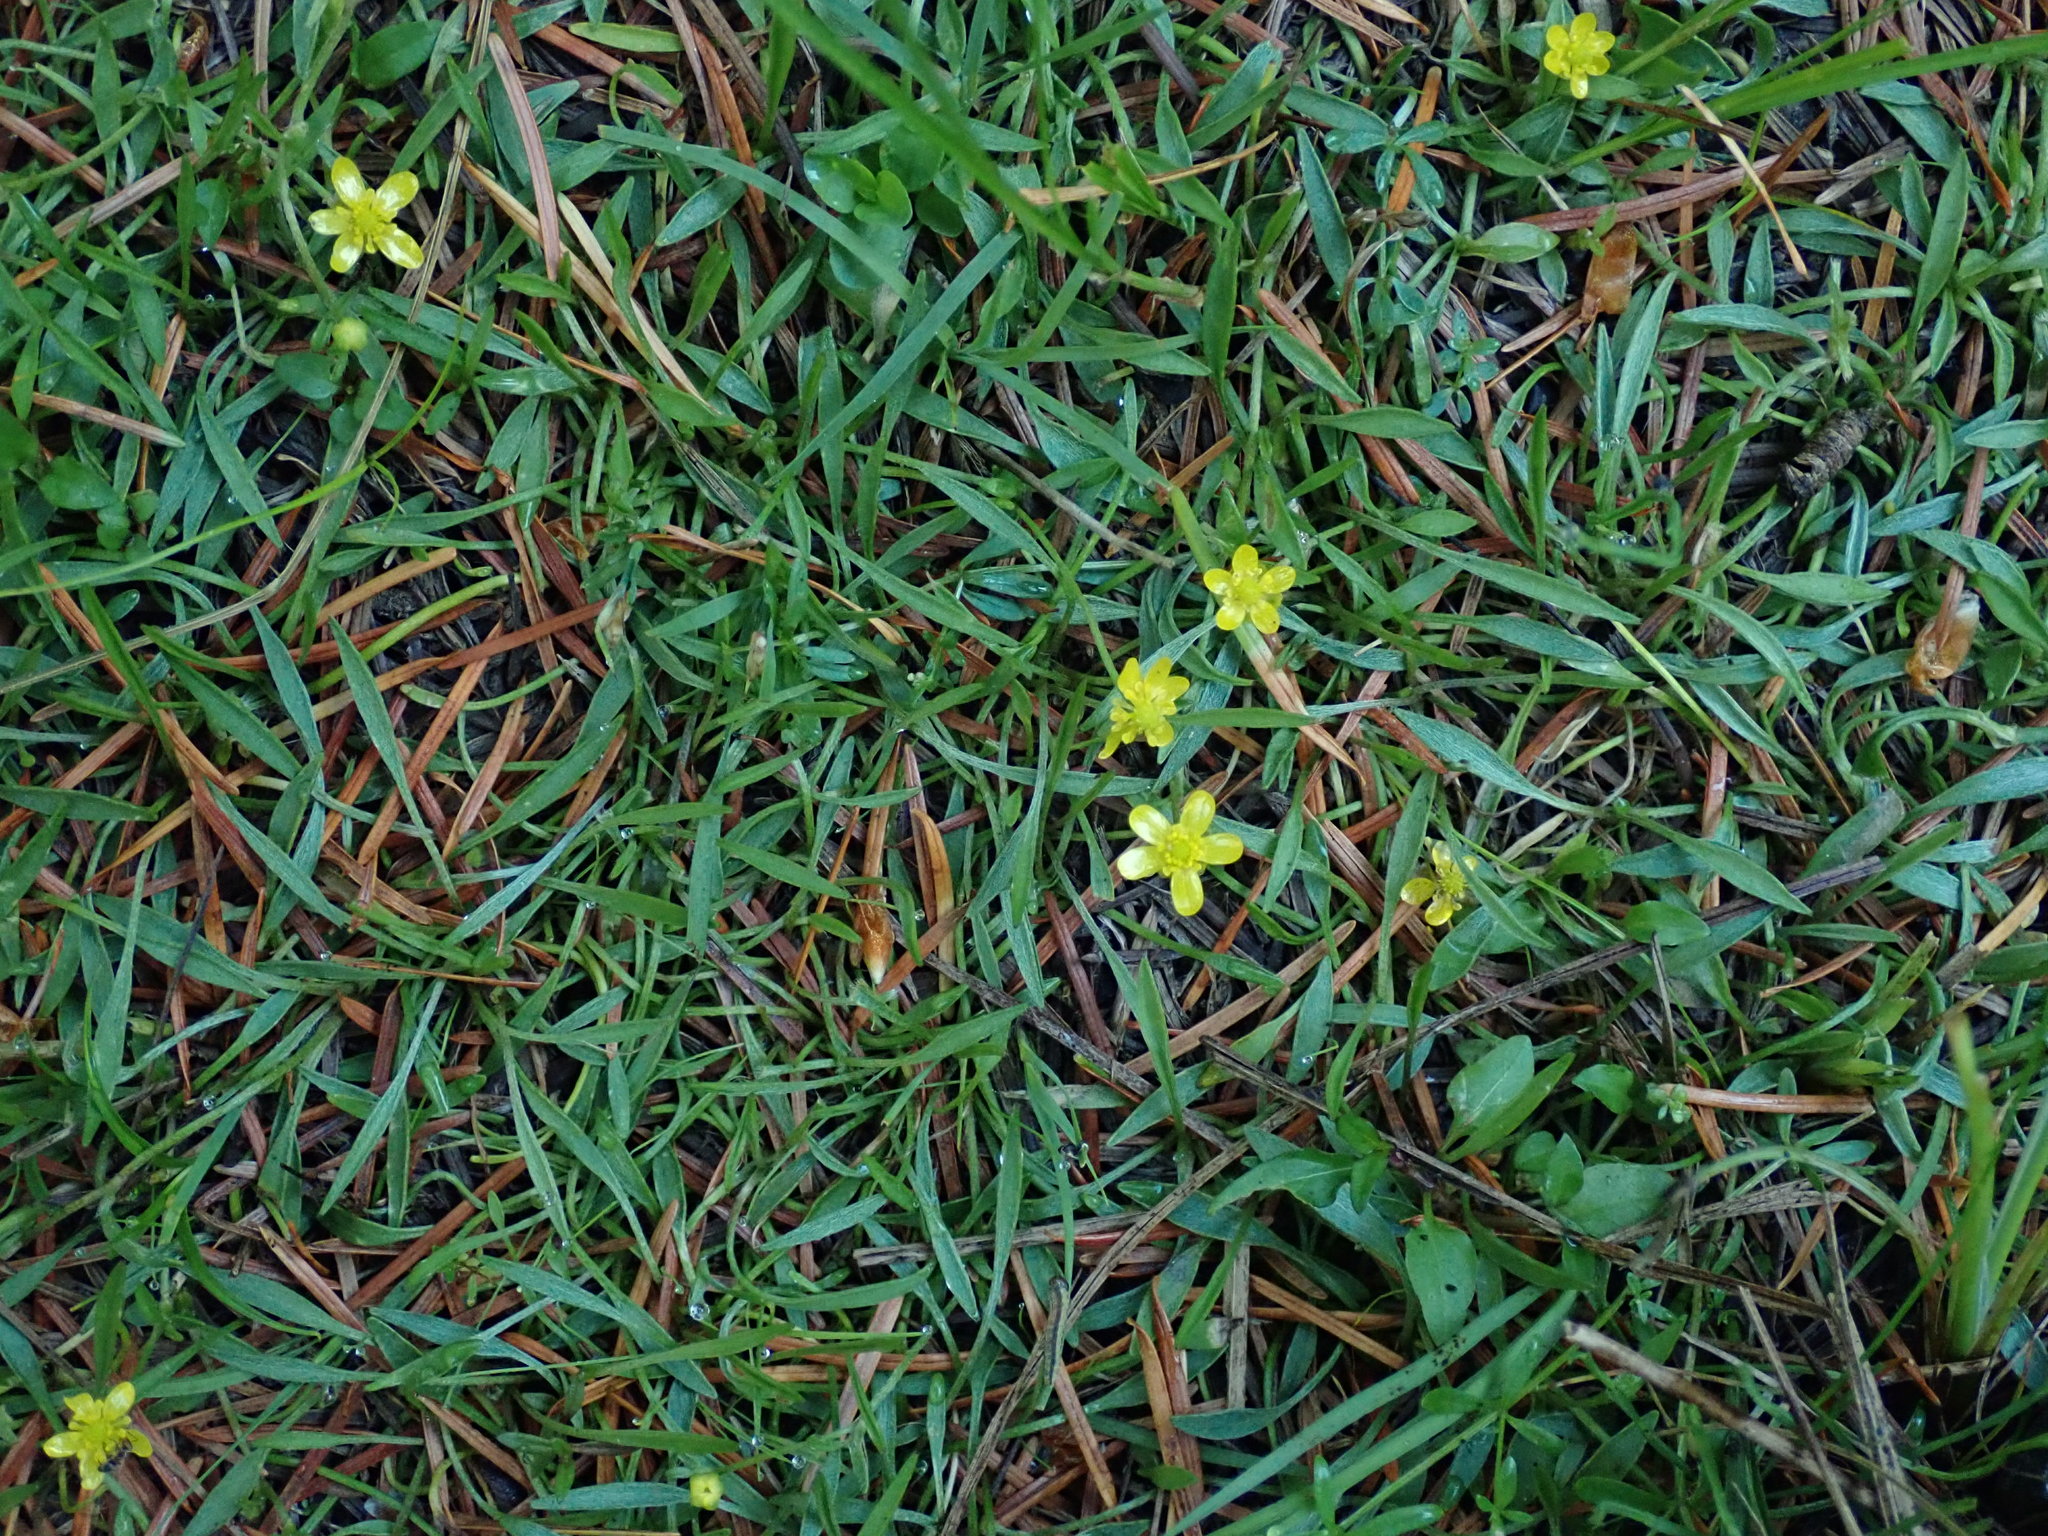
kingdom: Plantae
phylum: Tracheophyta
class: Magnoliopsida
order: Ranunculales
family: Ranunculaceae
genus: Ranunculus
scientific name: Ranunculus flammula
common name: Lesser spearwort
